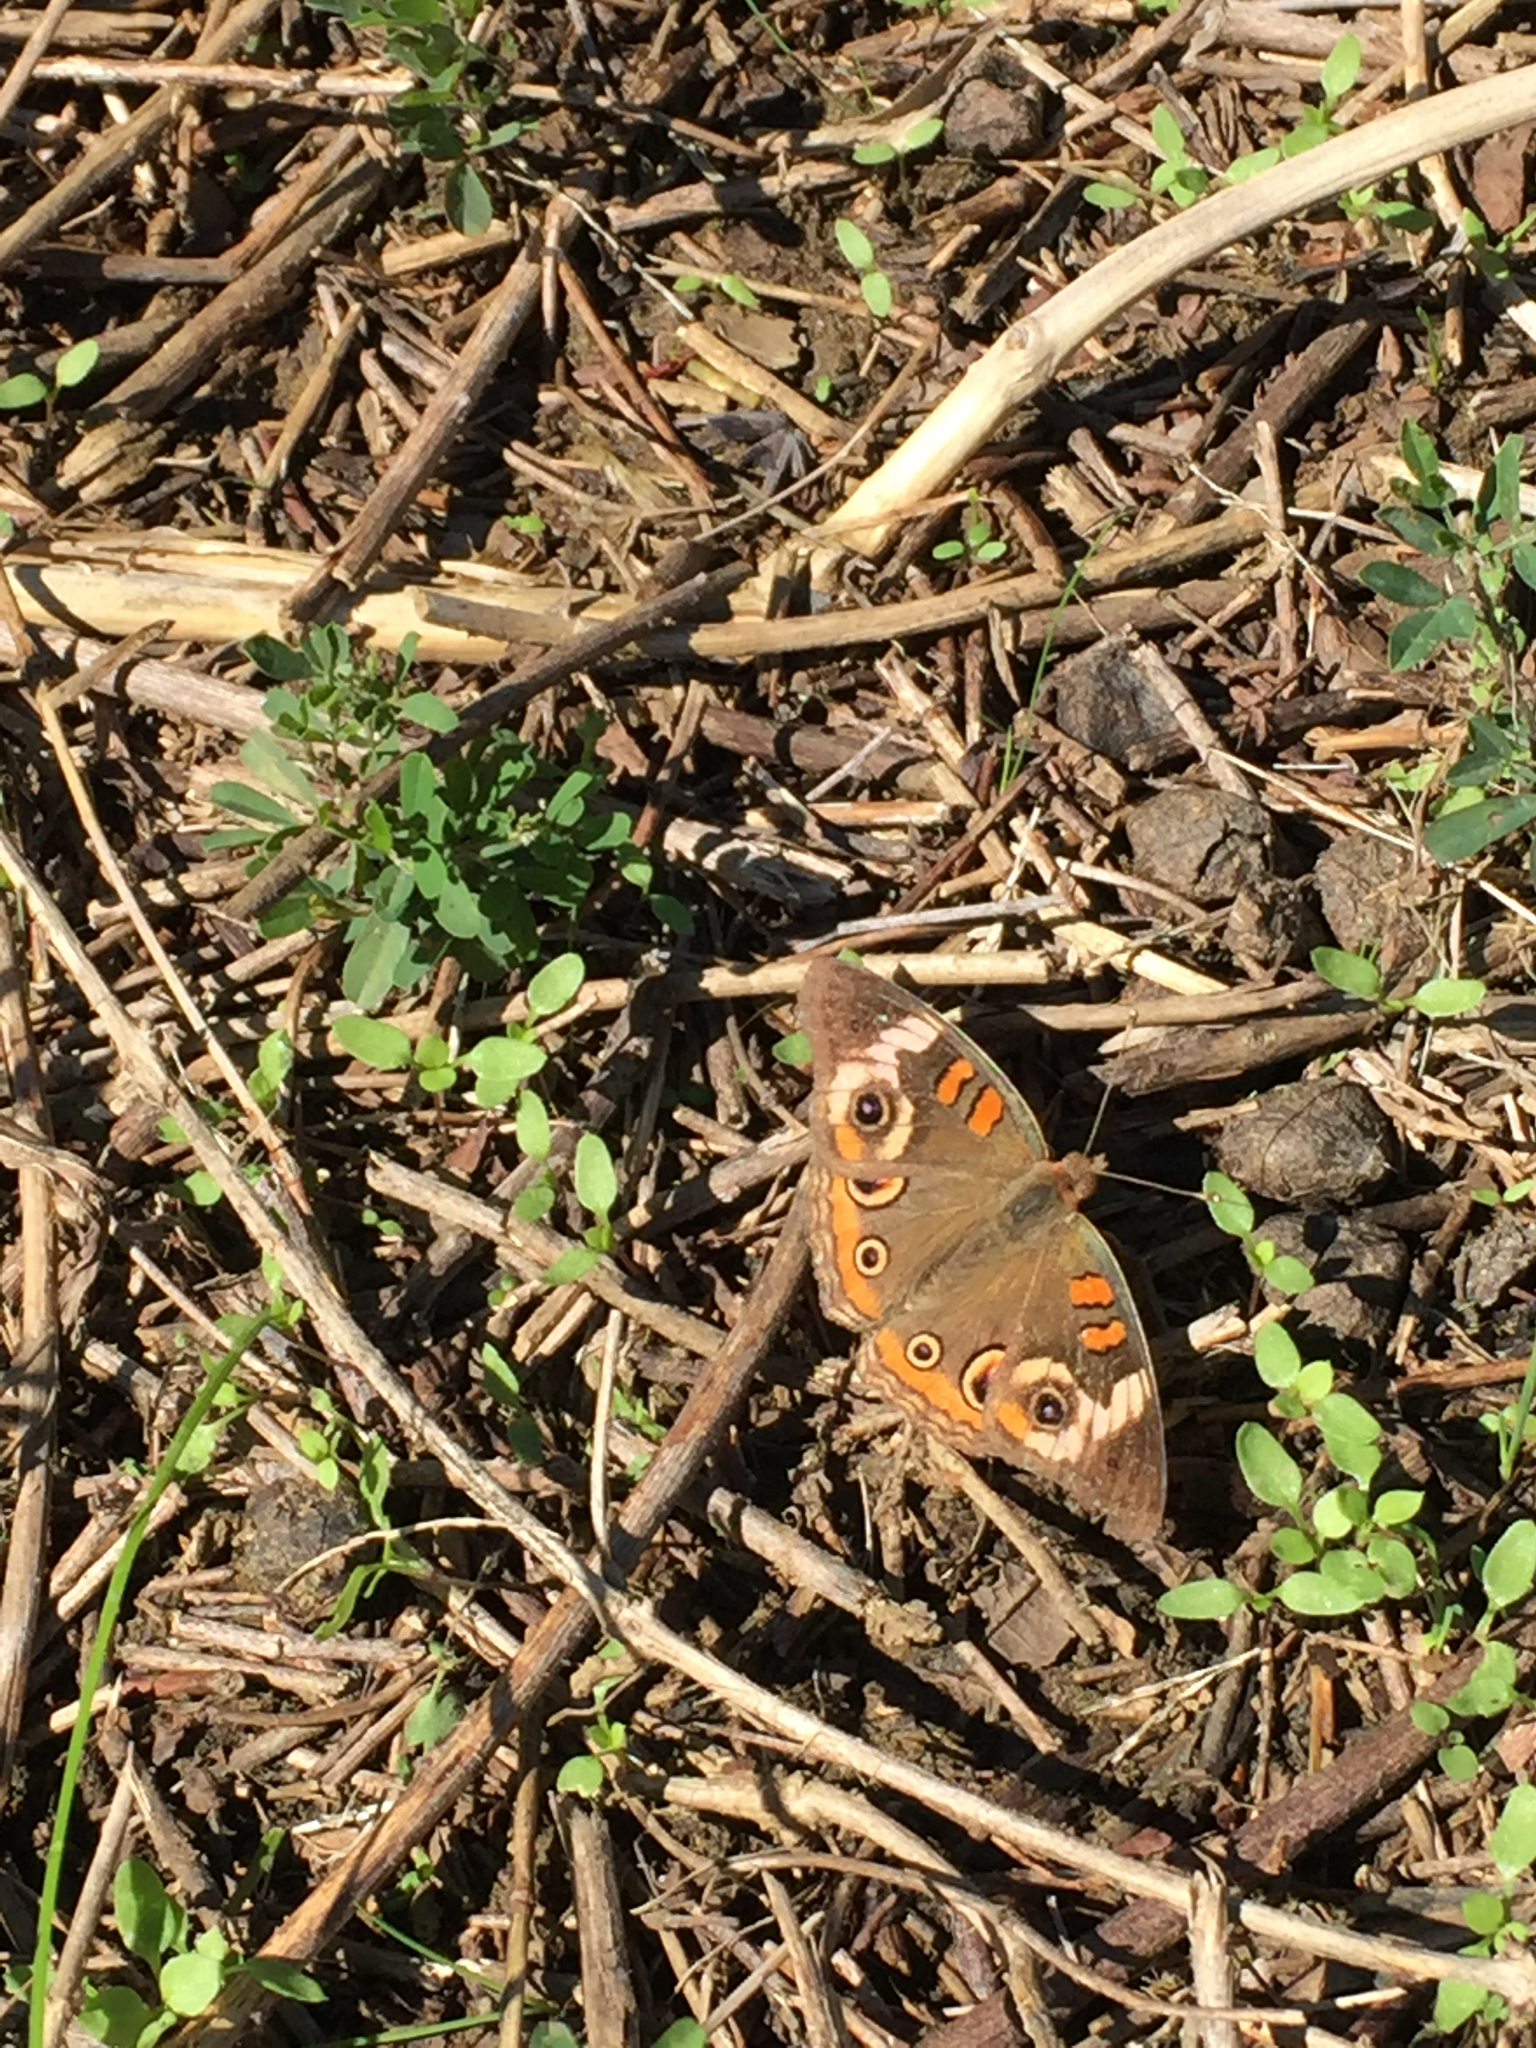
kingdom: Animalia
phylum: Arthropoda
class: Insecta
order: Lepidoptera
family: Nymphalidae
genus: Junonia
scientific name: Junonia coenia
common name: Common buckeye
